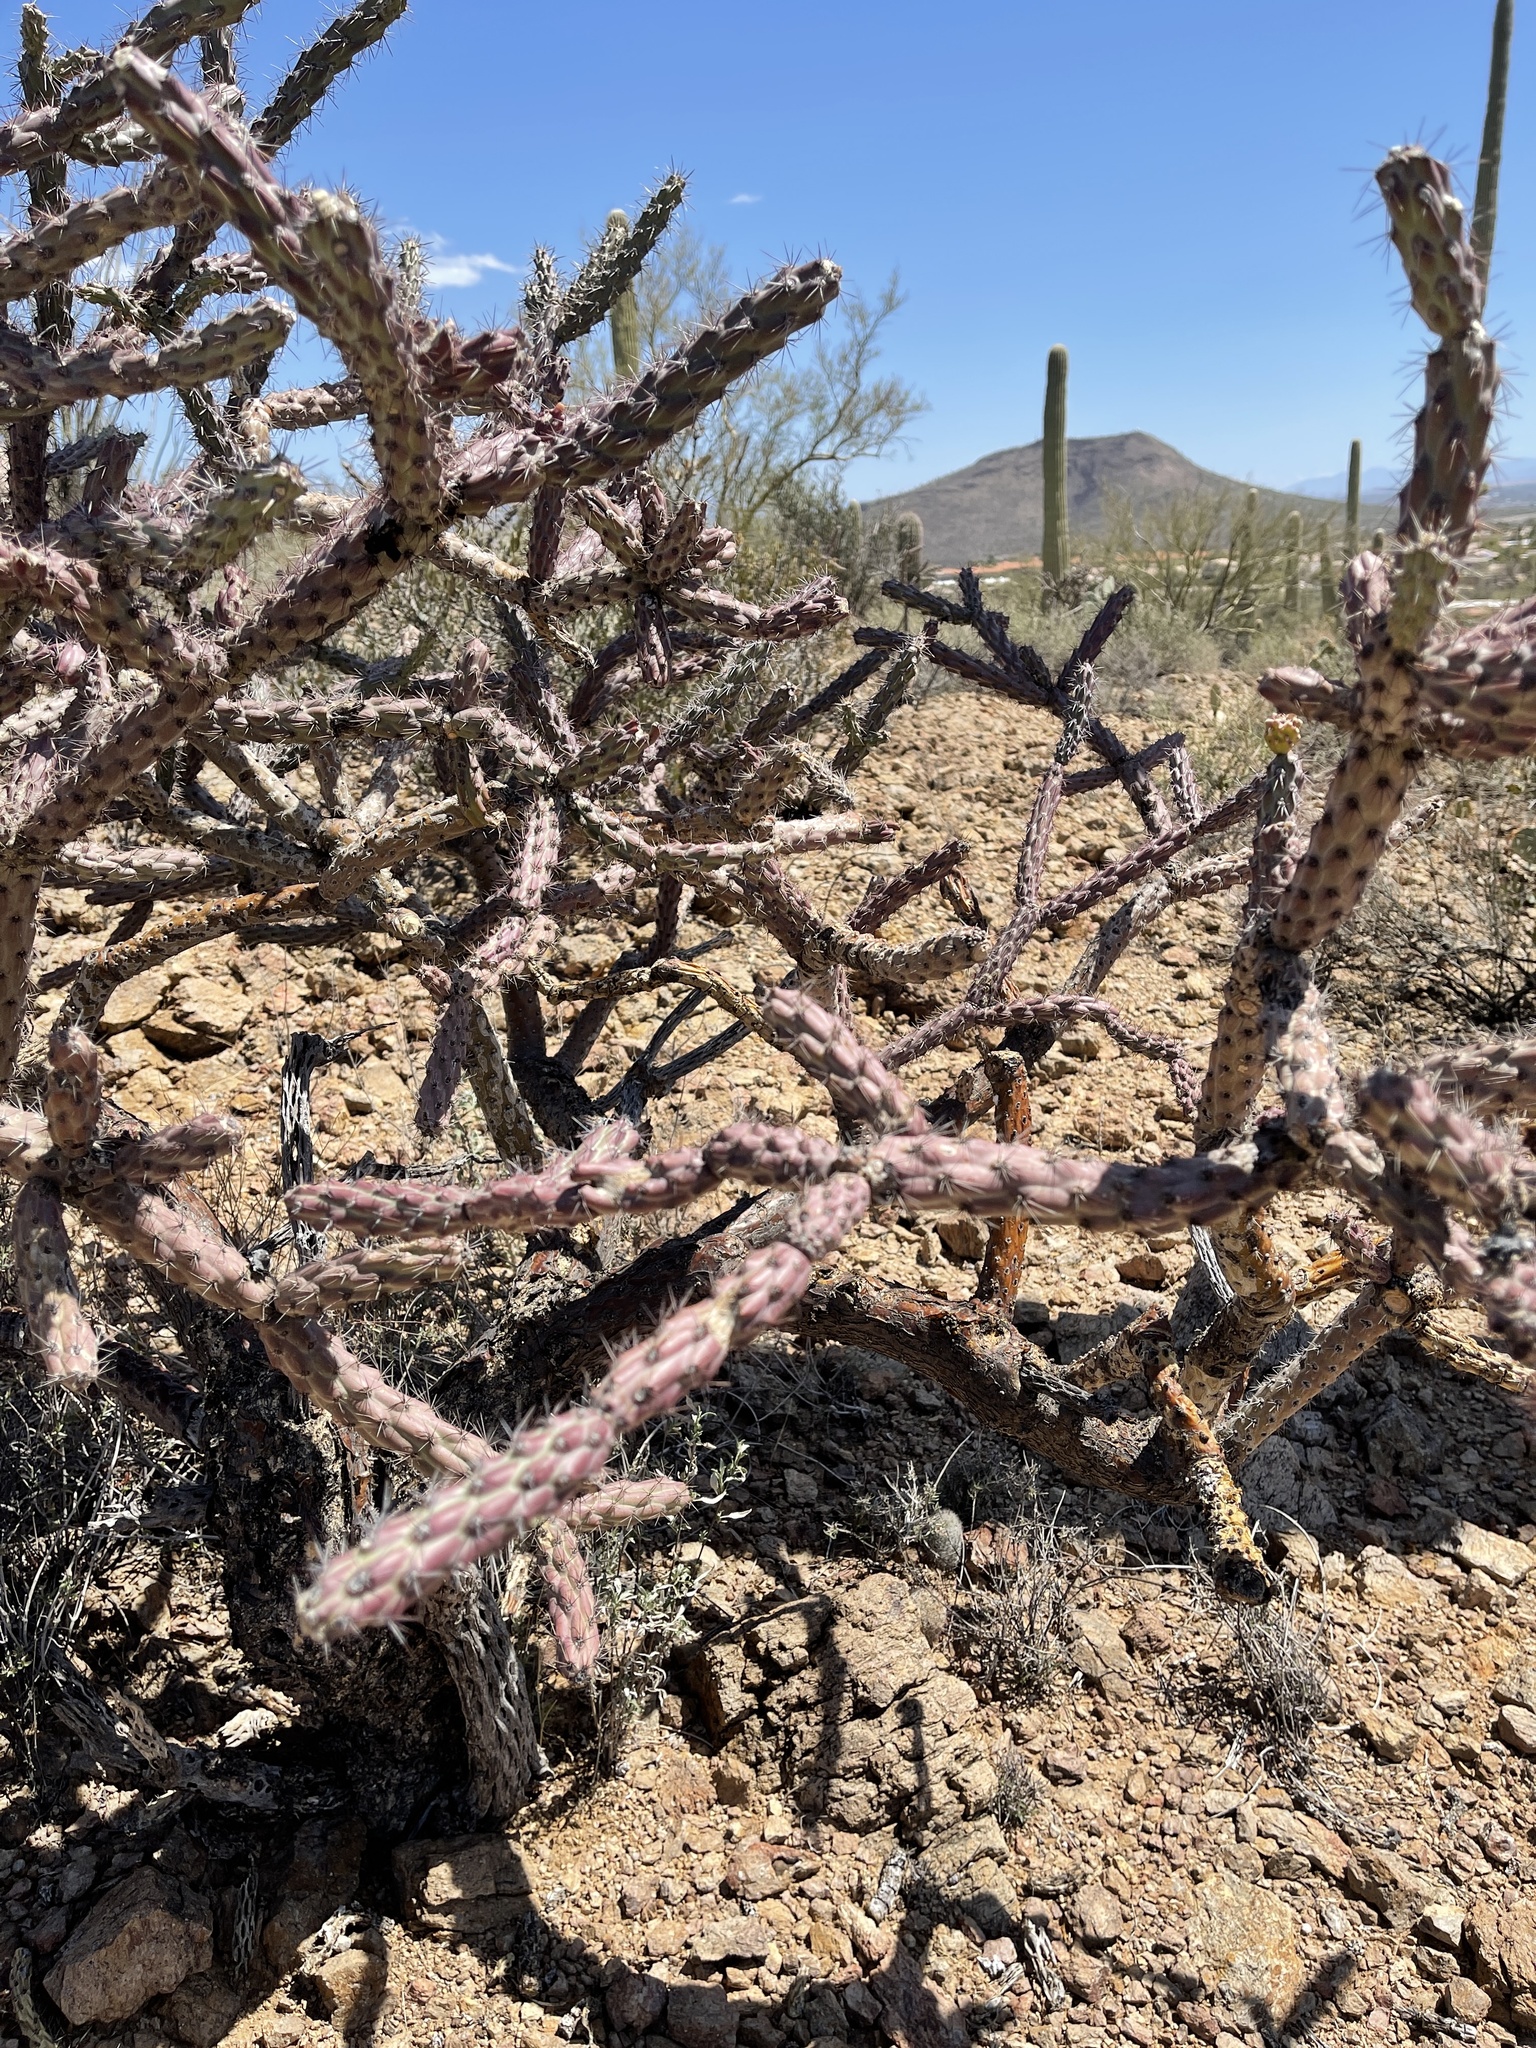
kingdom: Plantae
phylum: Tracheophyta
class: Magnoliopsida
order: Caryophyllales
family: Cactaceae
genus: Cylindropuntia
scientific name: Cylindropuntia thurberi
